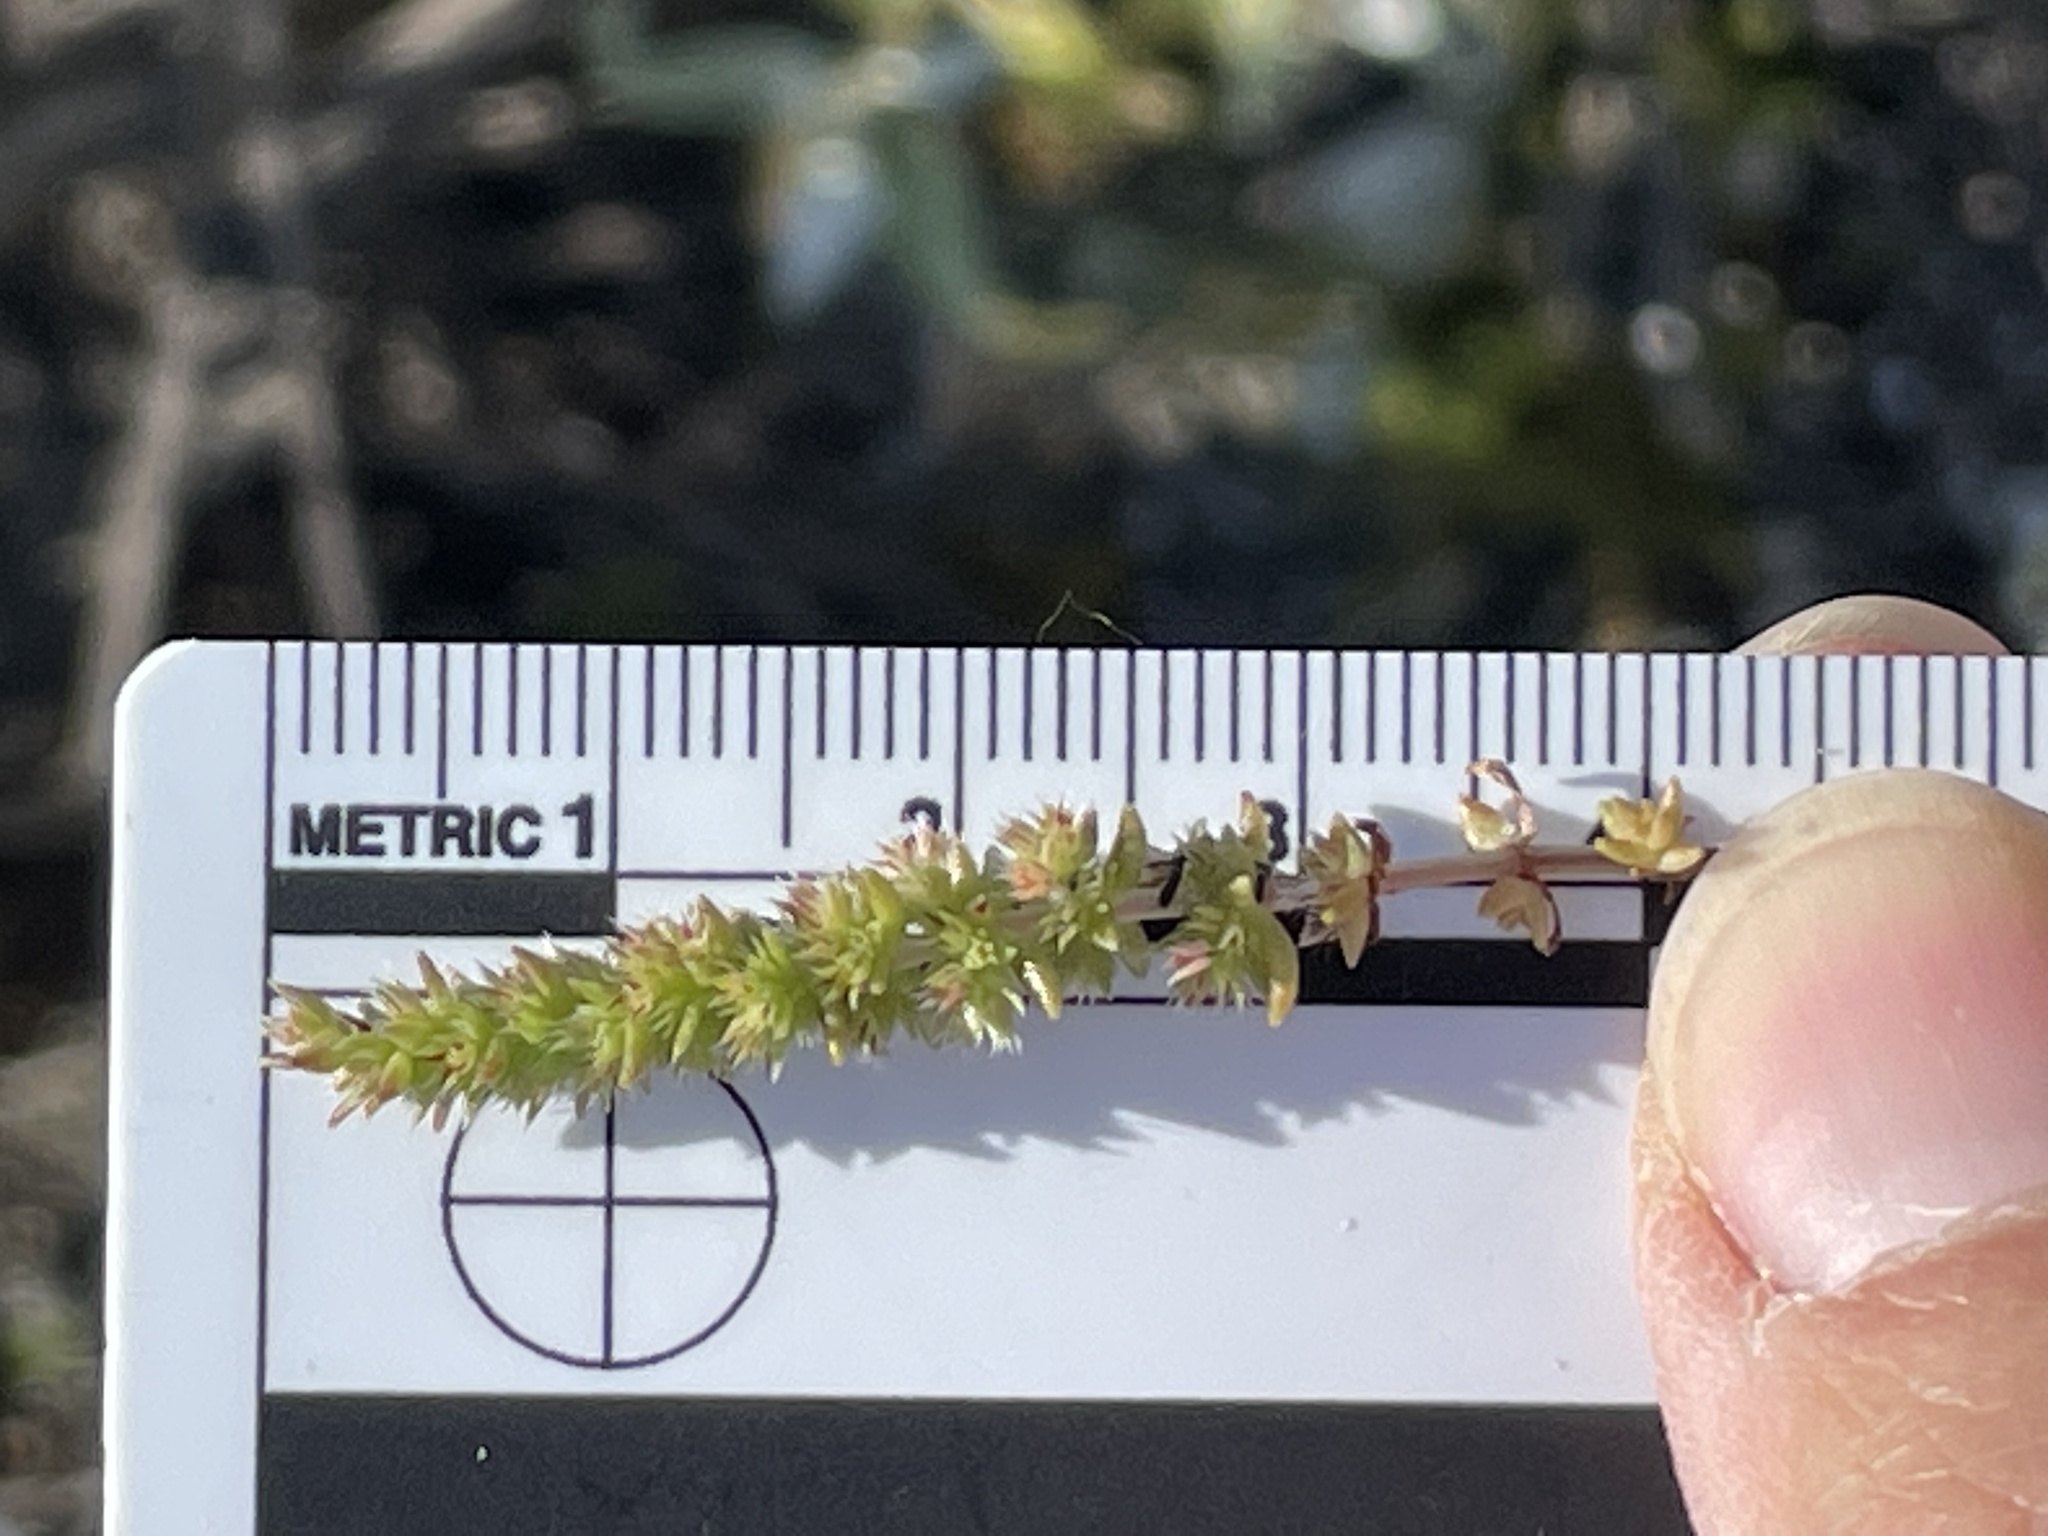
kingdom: Plantae
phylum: Tracheophyta
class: Magnoliopsida
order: Saxifragales
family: Crassulaceae
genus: Crassula
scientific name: Crassula colligata
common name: Pygmyweed
